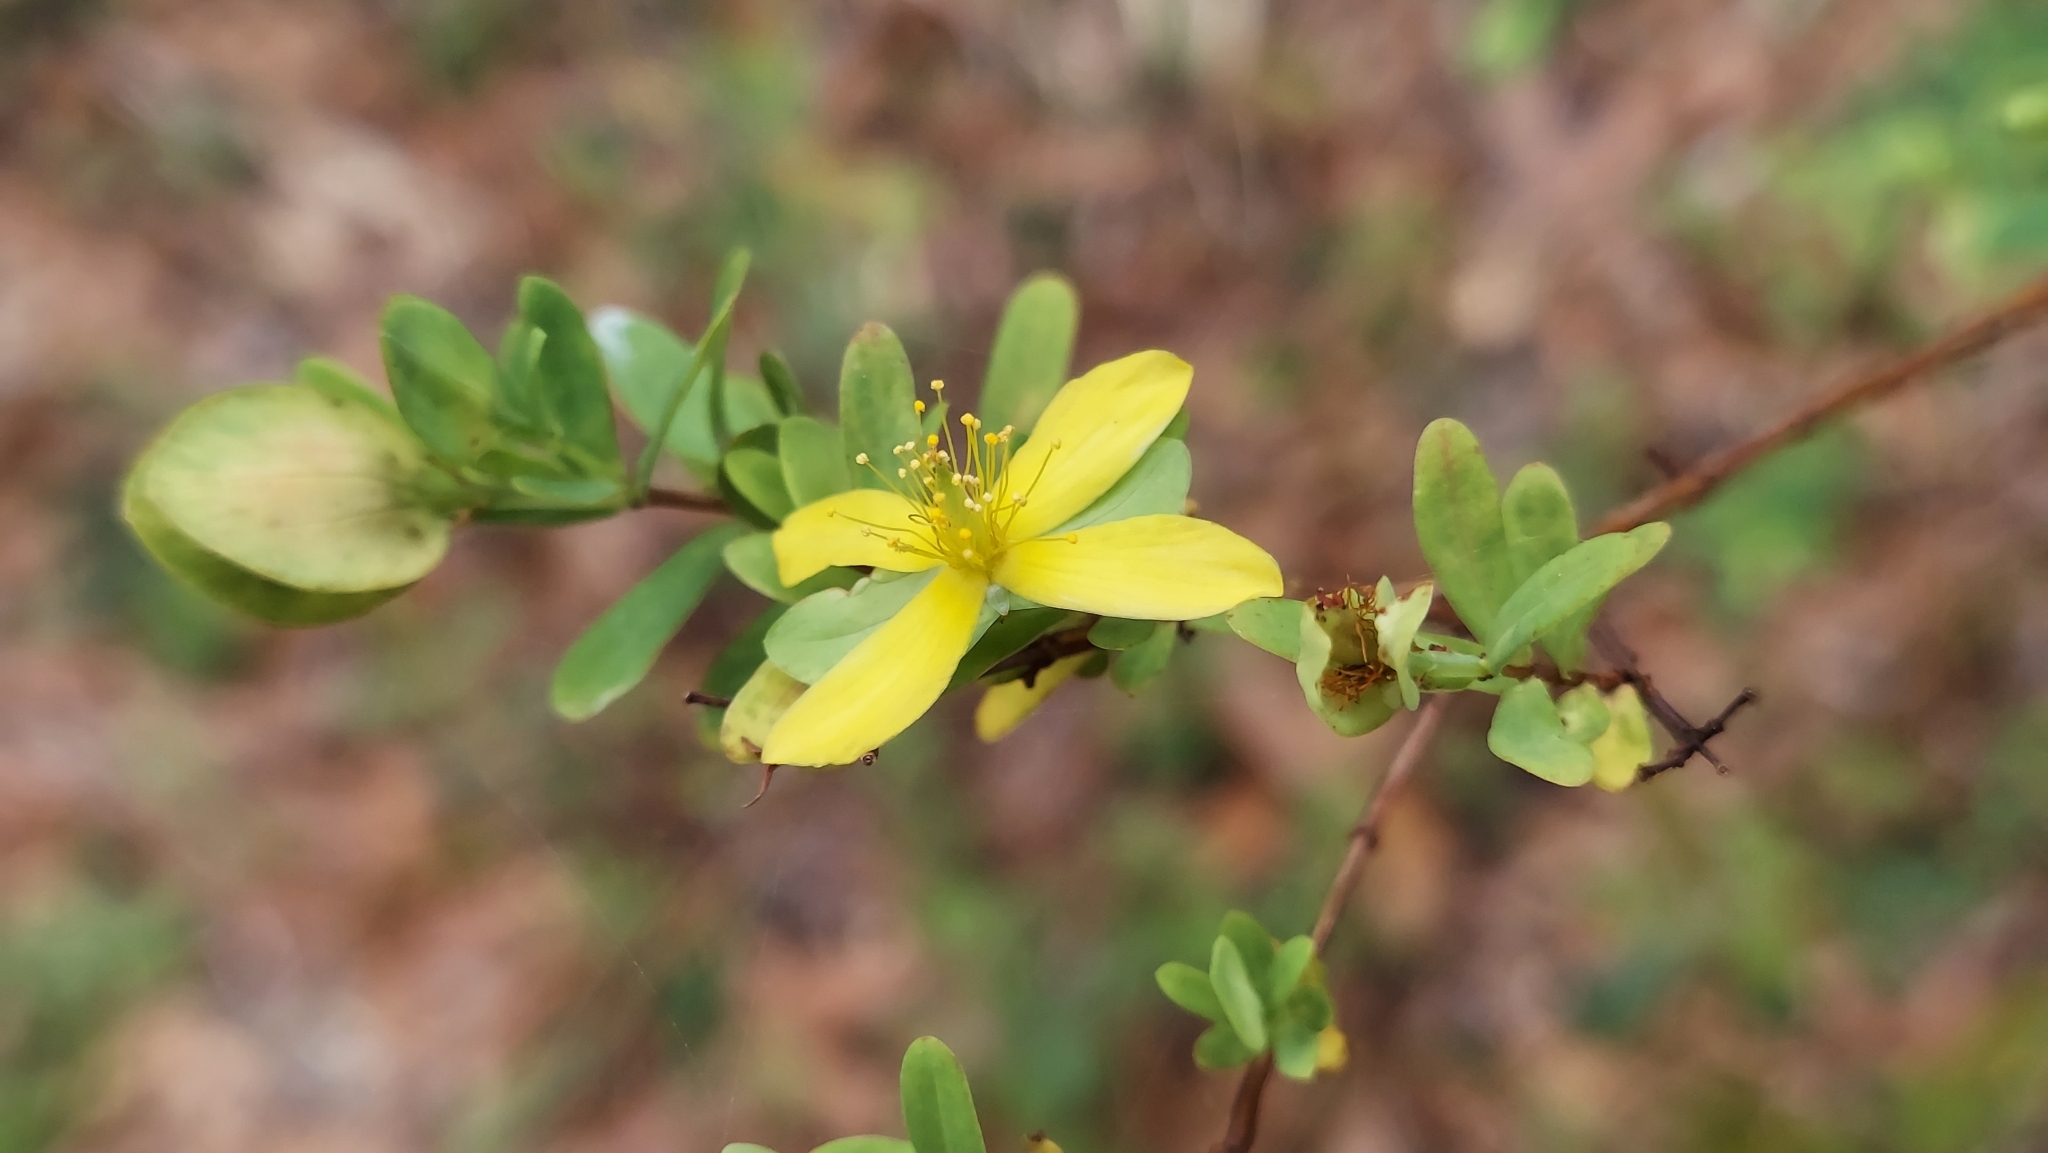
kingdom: Plantae
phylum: Tracheophyta
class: Magnoliopsida
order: Malpighiales
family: Hypericaceae
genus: Hypericum
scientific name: Hypericum hypericoides
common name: St. andrew's cross
